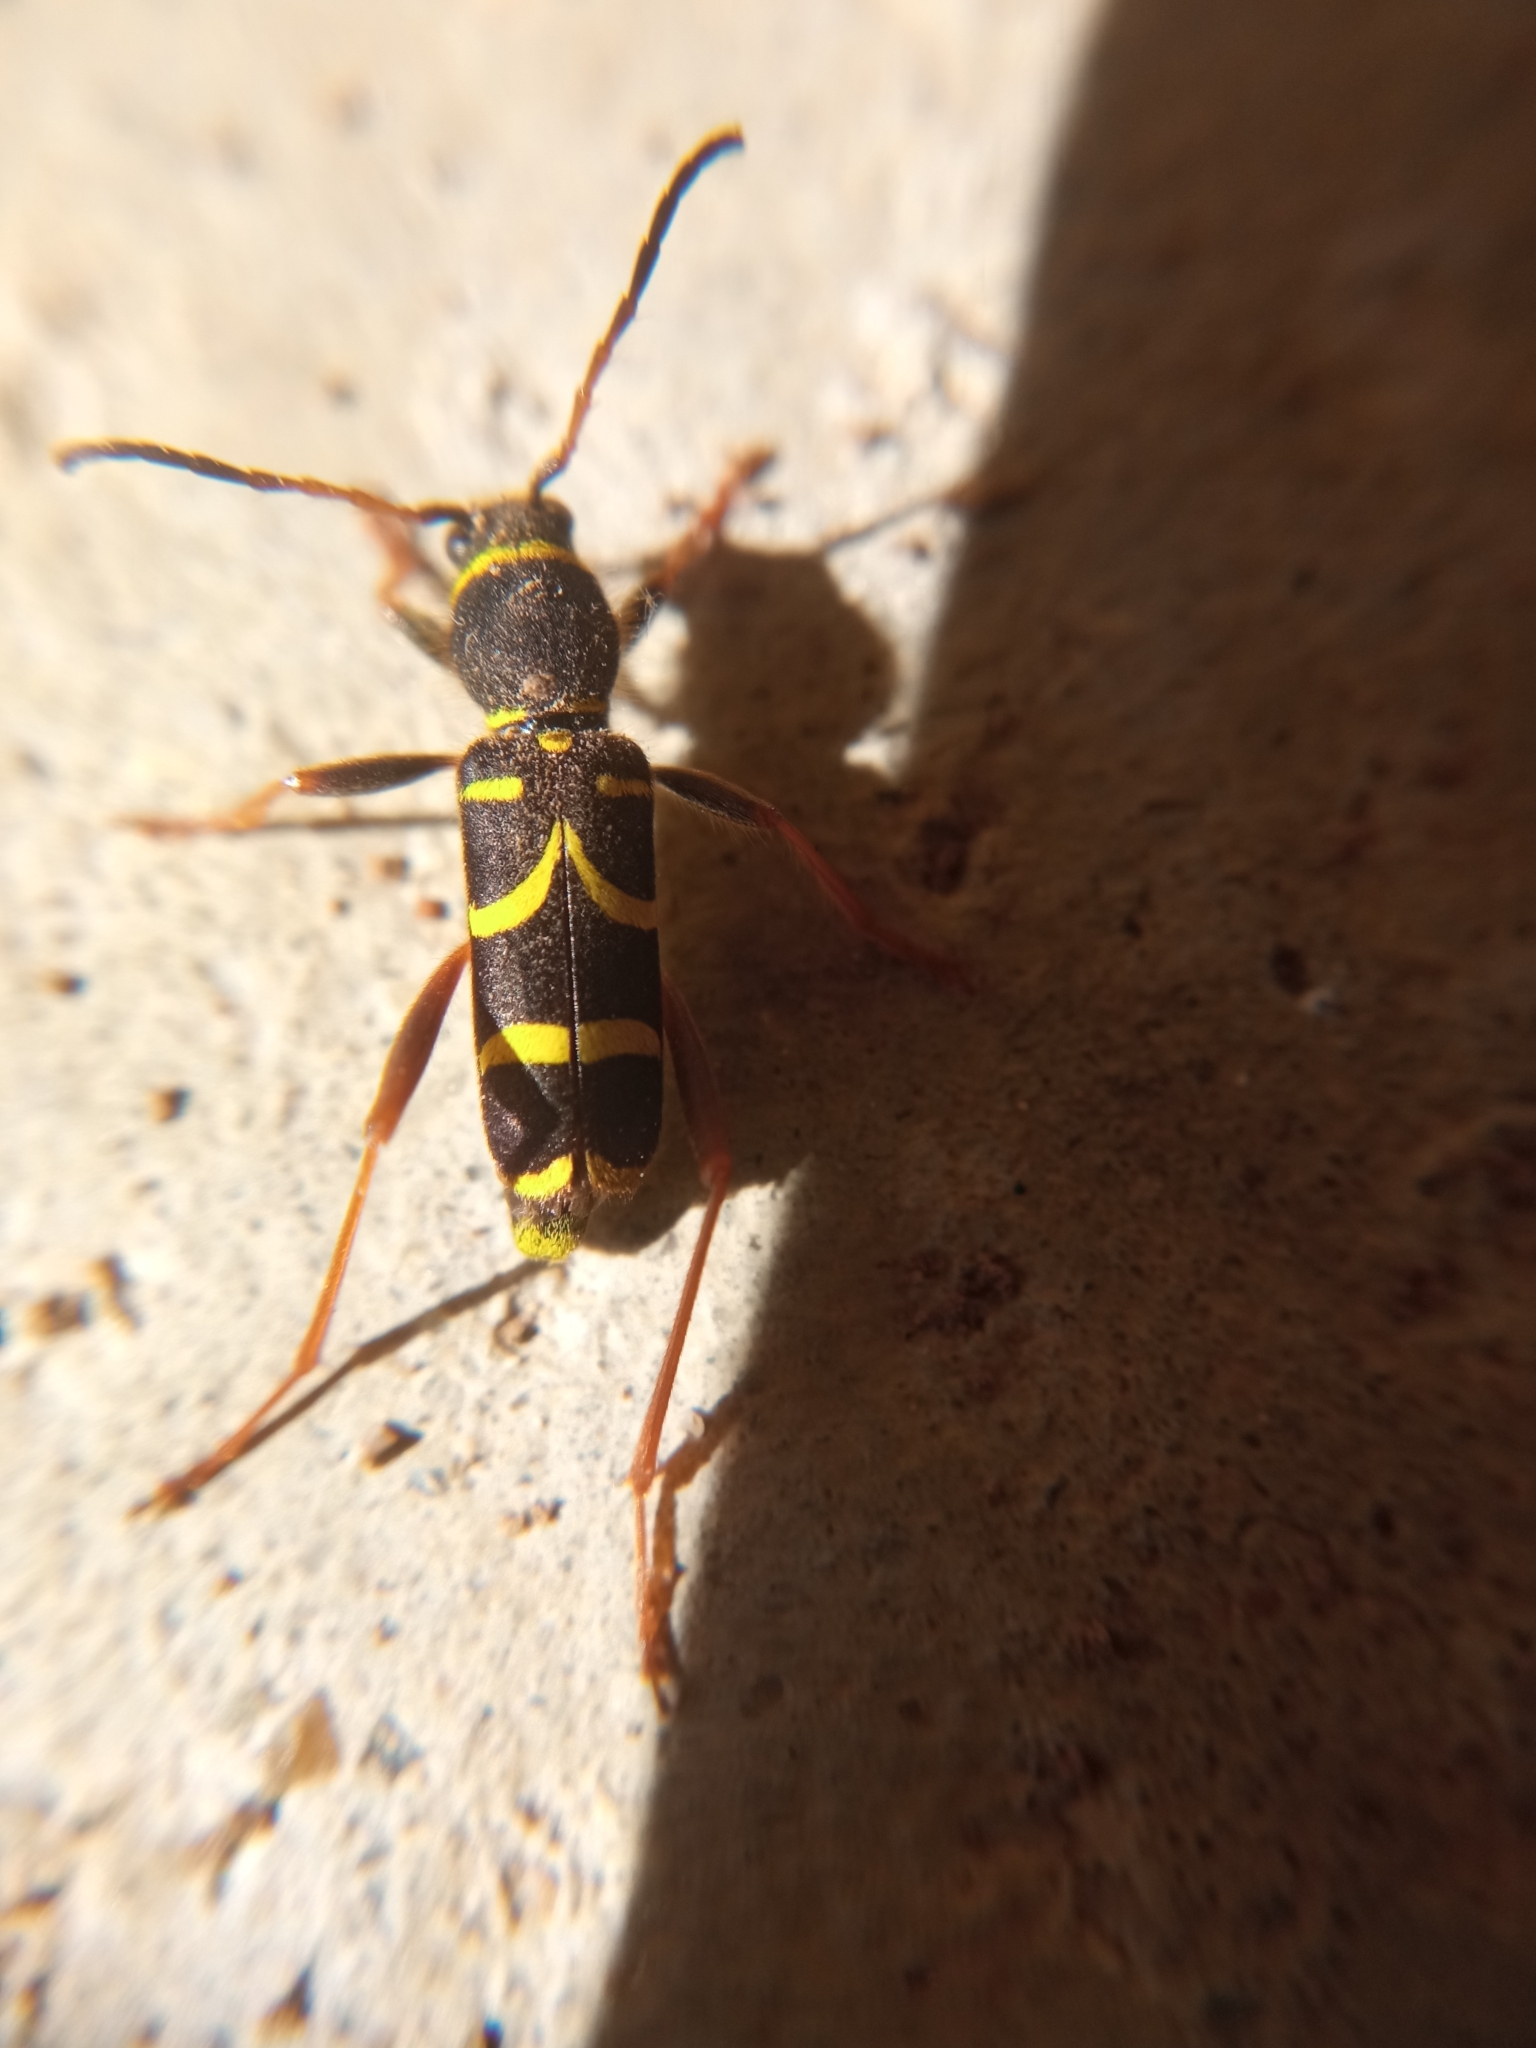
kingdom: Animalia
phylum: Arthropoda
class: Insecta
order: Coleoptera
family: Cerambycidae
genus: Clytus
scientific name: Clytus arietis
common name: Wasp beetle
